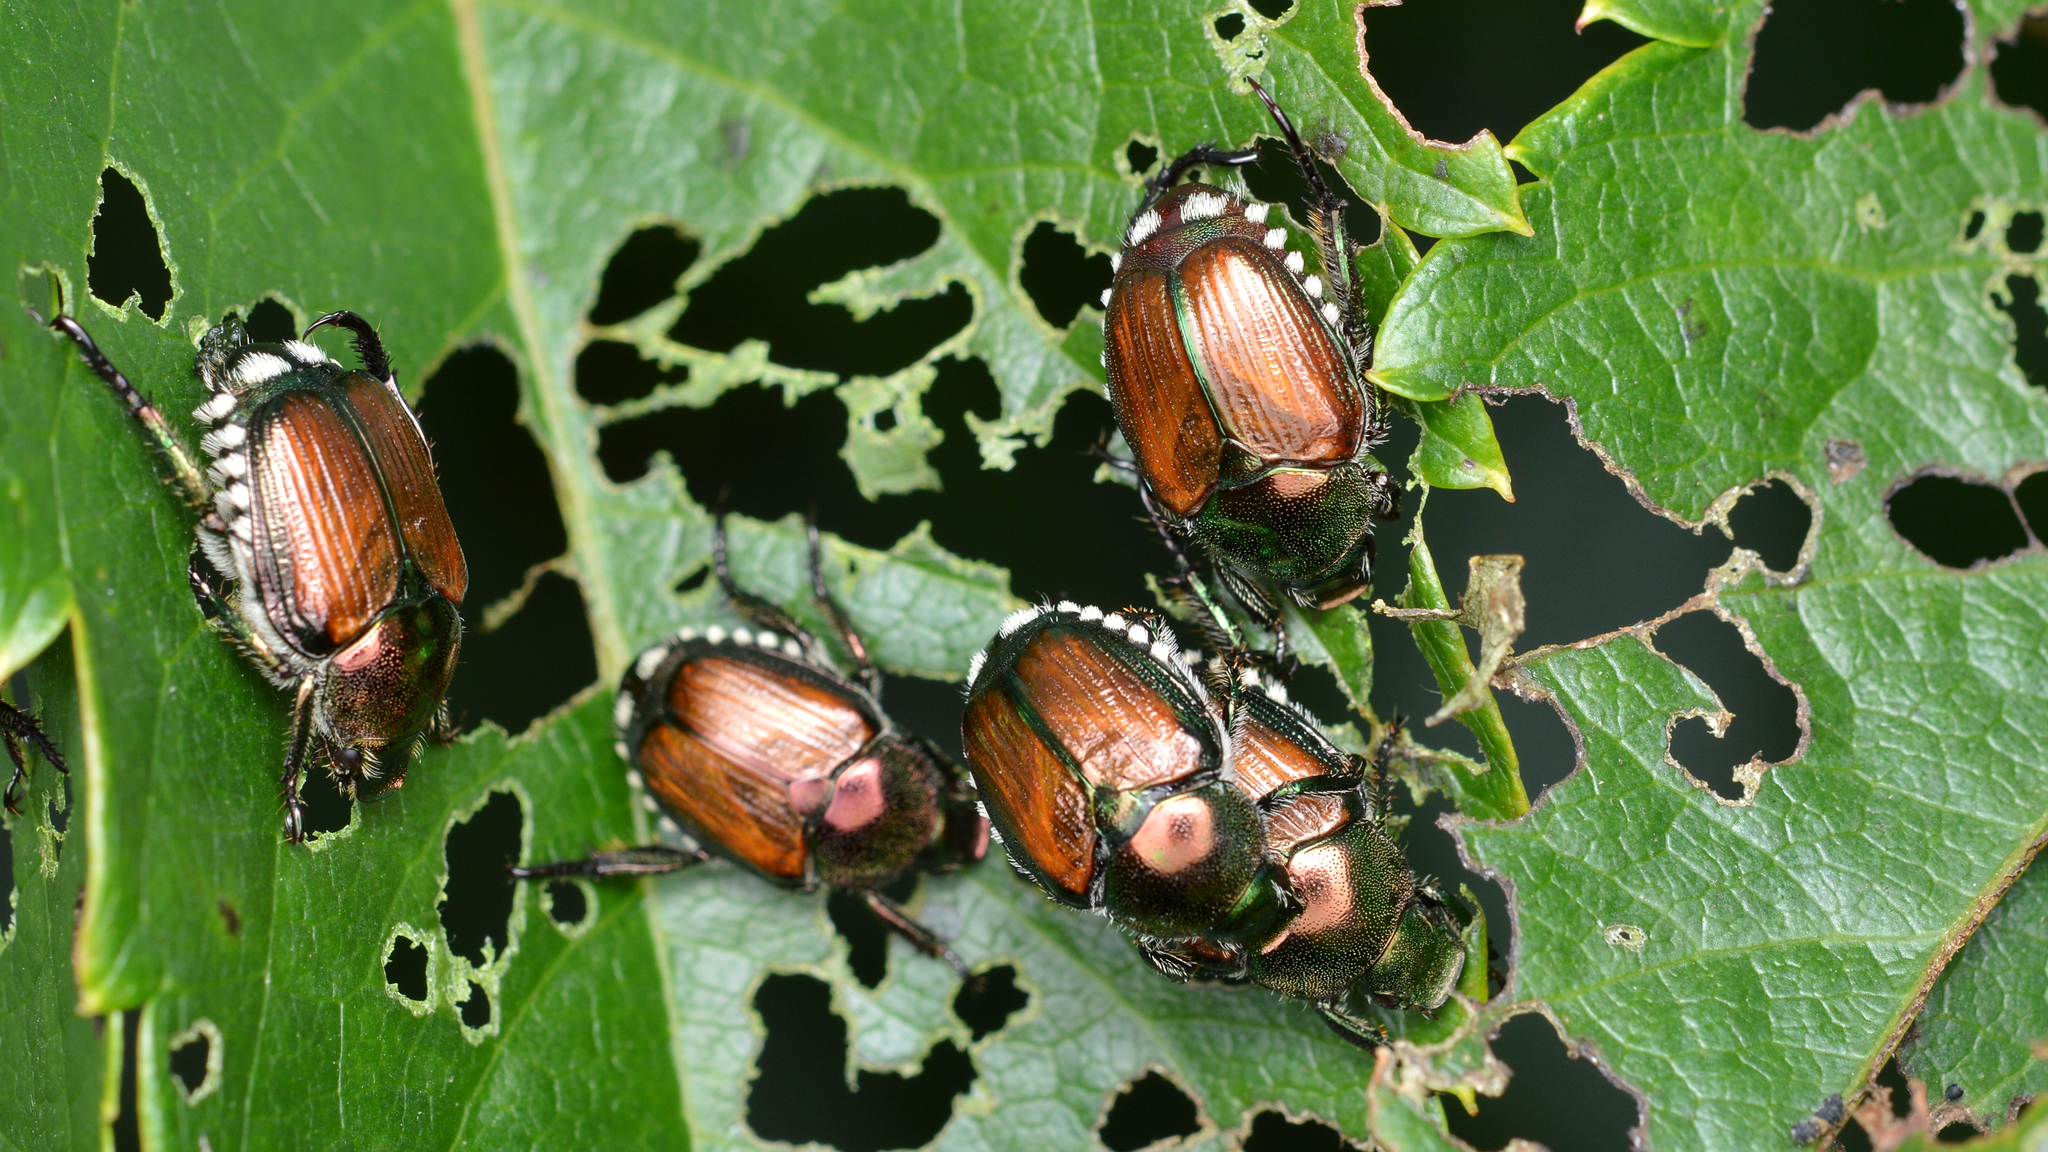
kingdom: Animalia
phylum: Arthropoda
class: Insecta
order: Coleoptera
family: Scarabaeidae
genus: Popillia
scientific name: Popillia japonica
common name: Japanese beetle
